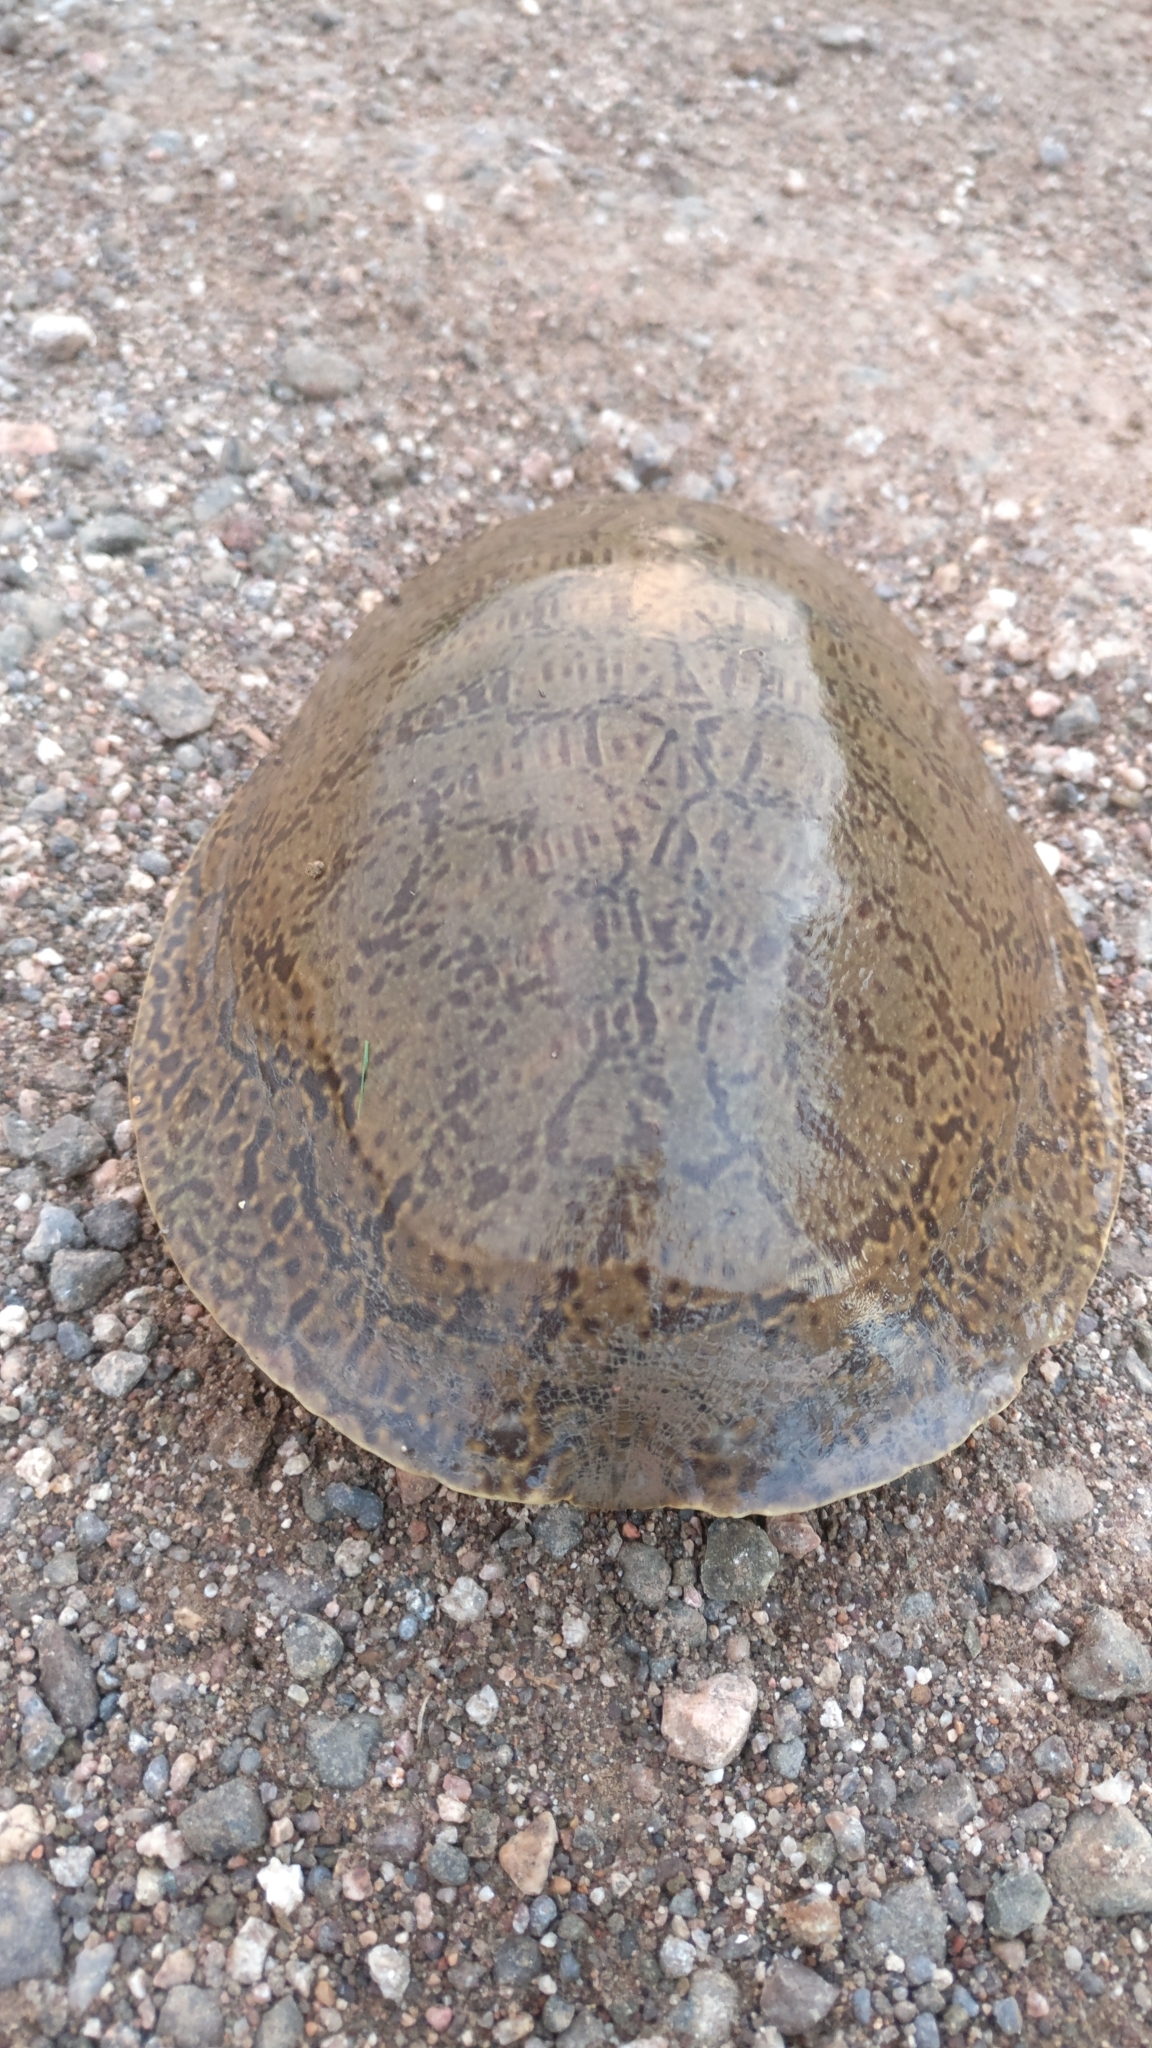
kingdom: Animalia
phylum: Chordata
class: Testudines
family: Trionychidae
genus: Lissemys
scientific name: Lissemys punctata
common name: Indian flap-shelled turtle
